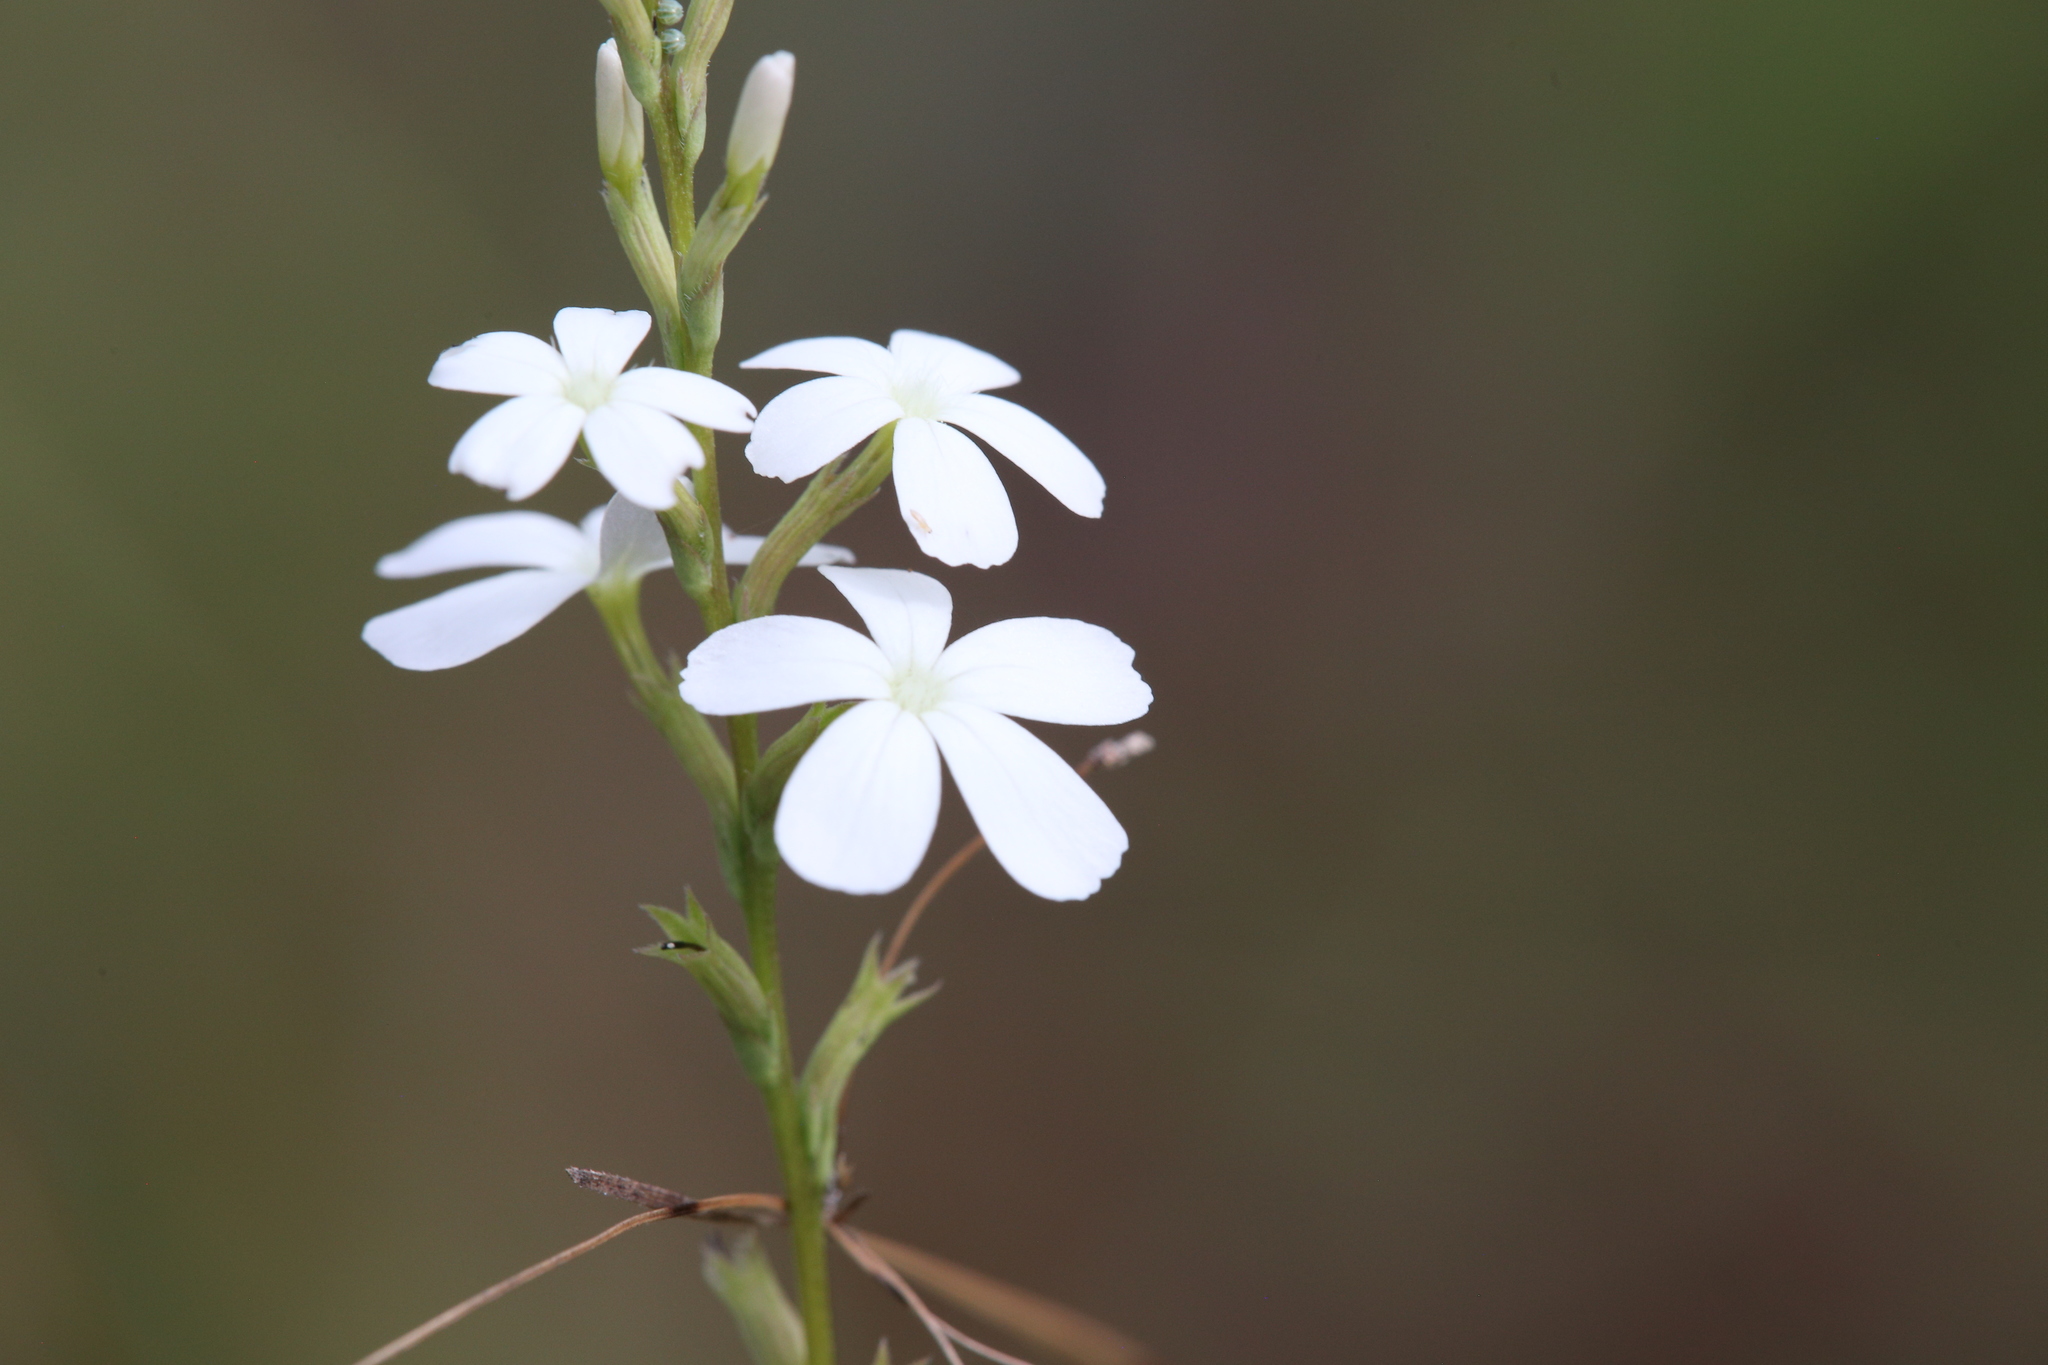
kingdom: Plantae
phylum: Tracheophyta
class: Magnoliopsida
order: Lamiales
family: Orobanchaceae
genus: Buchnera
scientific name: Buchnera linearis
